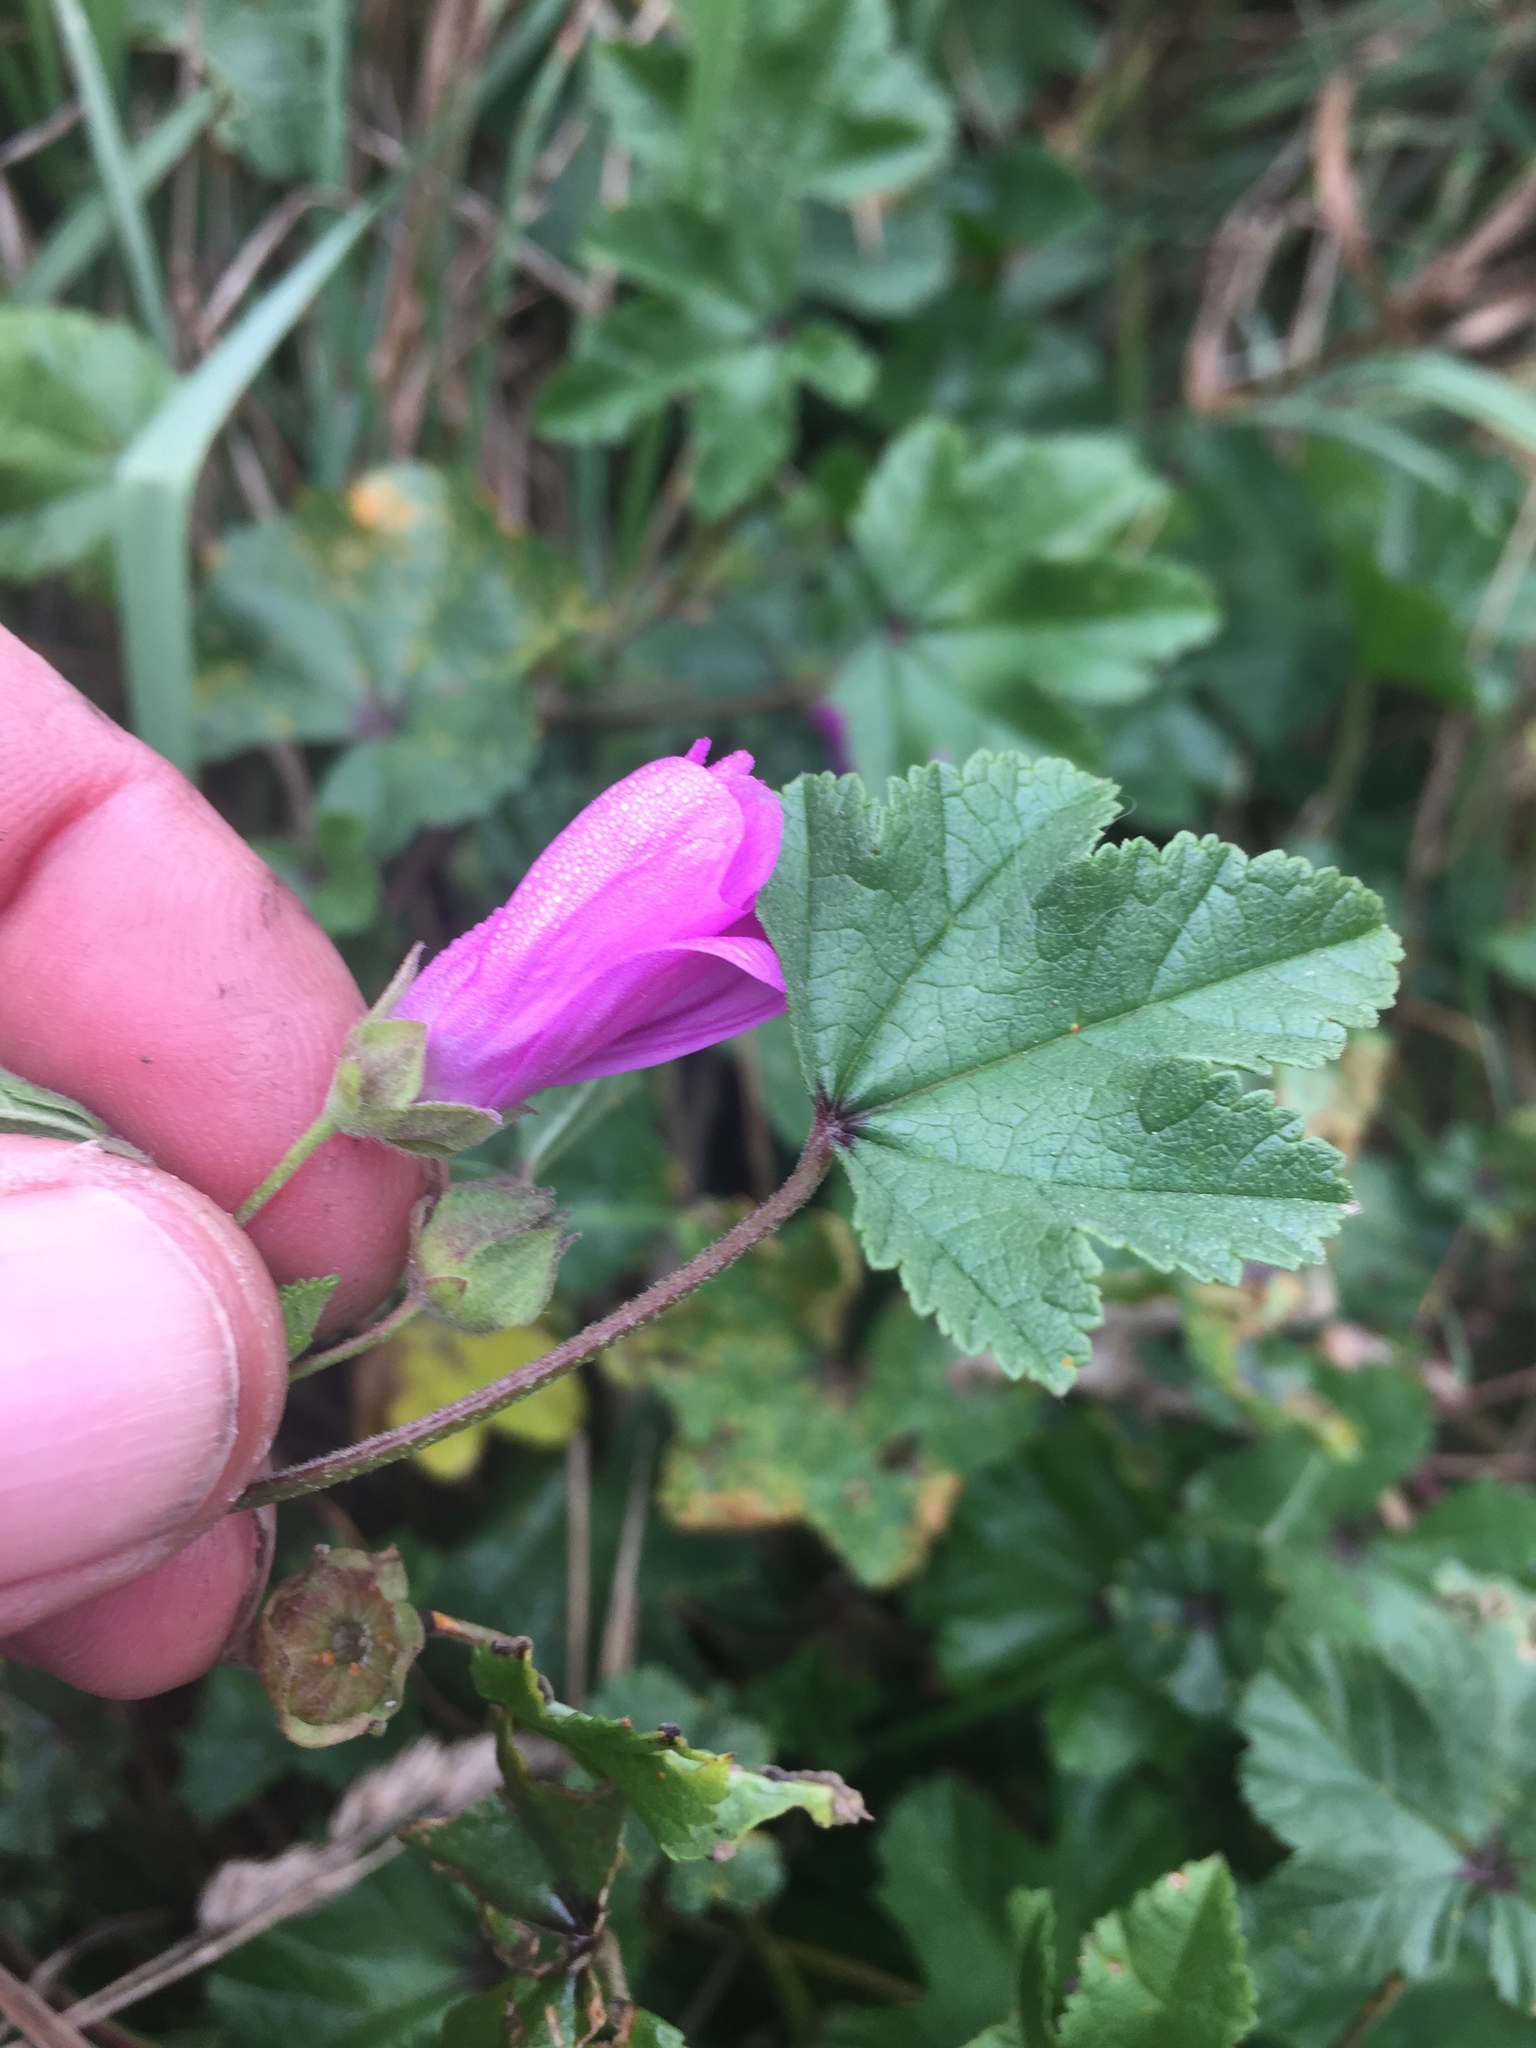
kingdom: Plantae
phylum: Tracheophyta
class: Magnoliopsida
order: Malvales
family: Malvaceae
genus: Malva
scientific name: Malva sylvestris
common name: Common mallow
